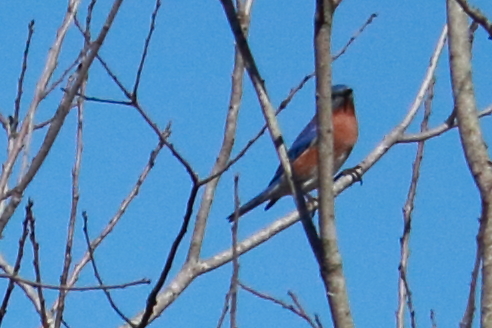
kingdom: Animalia
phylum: Chordata
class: Aves
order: Passeriformes
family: Turdidae
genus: Sialia
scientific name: Sialia sialis
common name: Eastern bluebird
